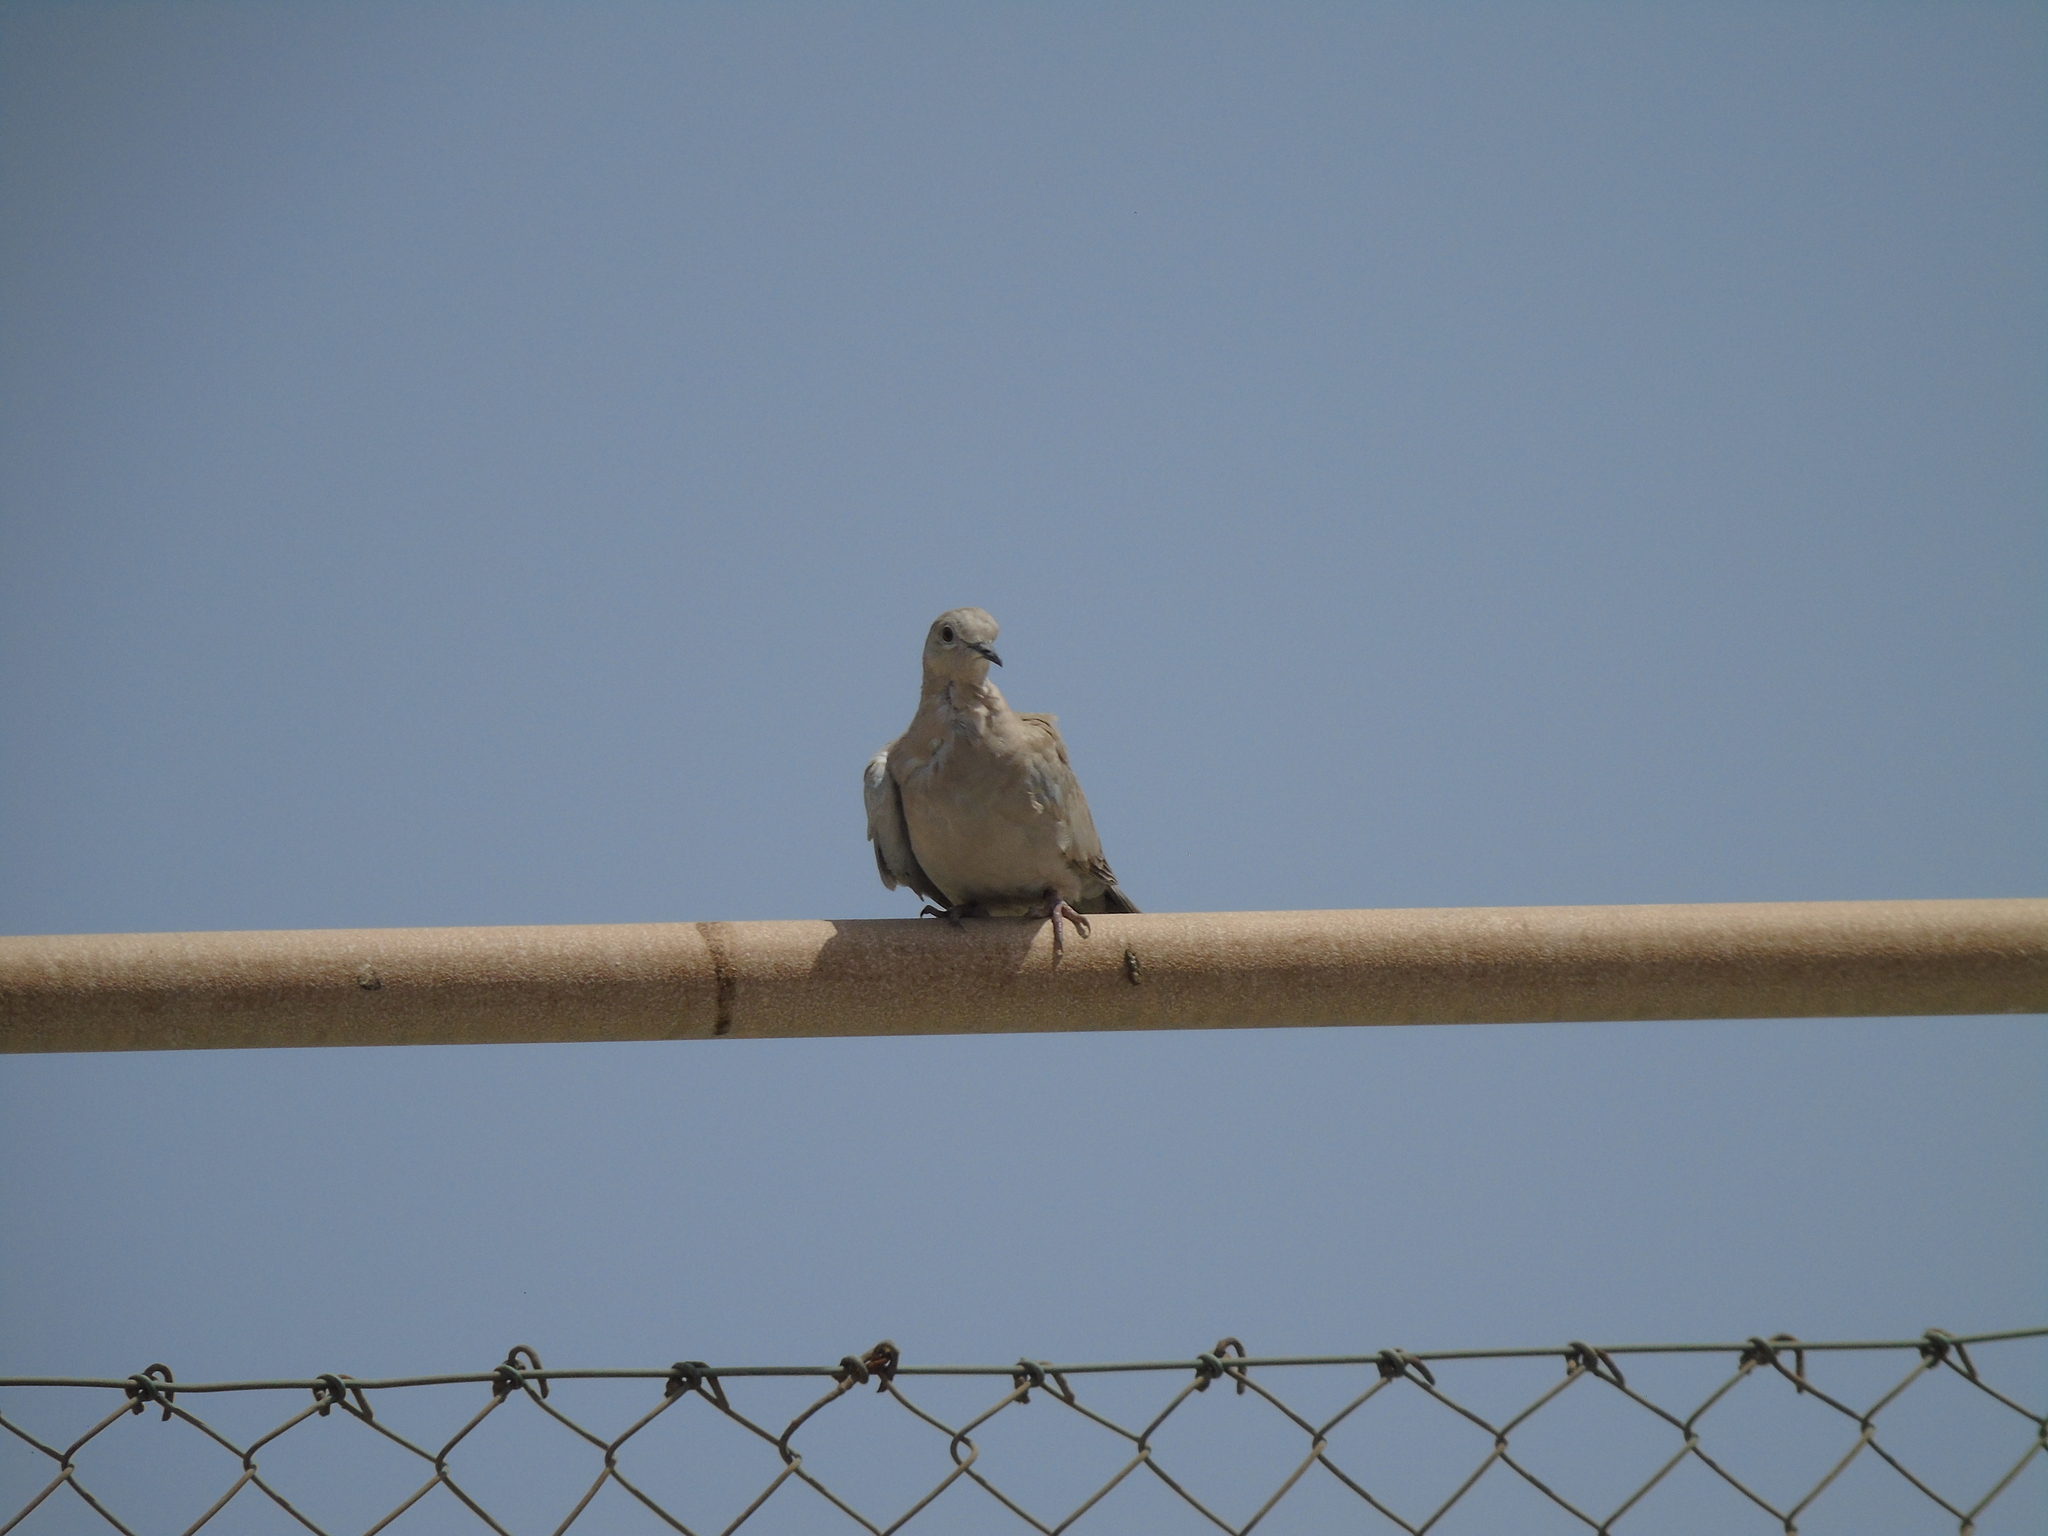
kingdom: Animalia
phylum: Chordata
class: Aves
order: Columbiformes
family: Columbidae
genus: Streptopelia
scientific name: Streptopelia
